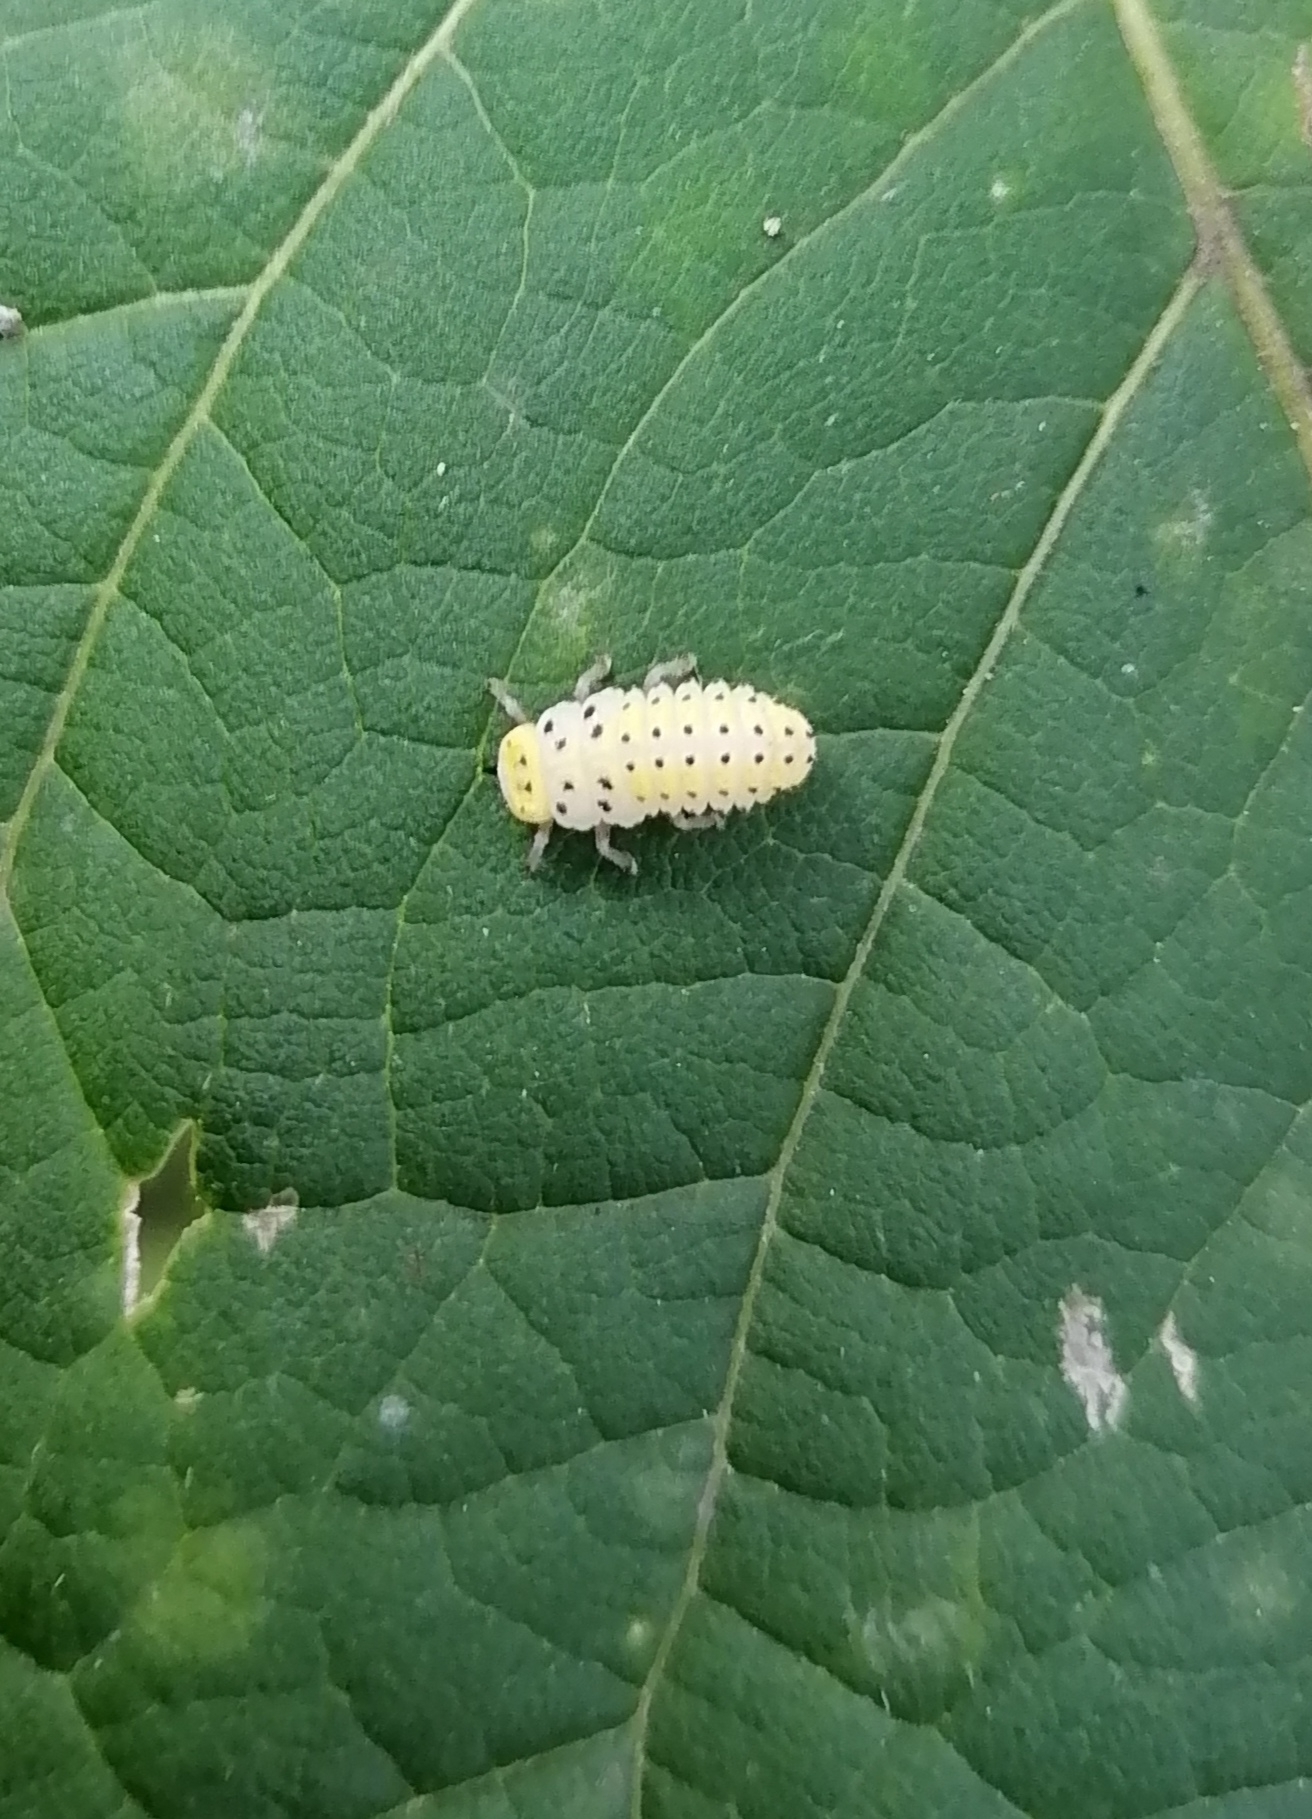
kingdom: Animalia
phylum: Arthropoda
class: Insecta
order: Coleoptera
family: Coccinellidae
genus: Halyzia
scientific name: Halyzia sedecimguttata
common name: Orange ladybird
